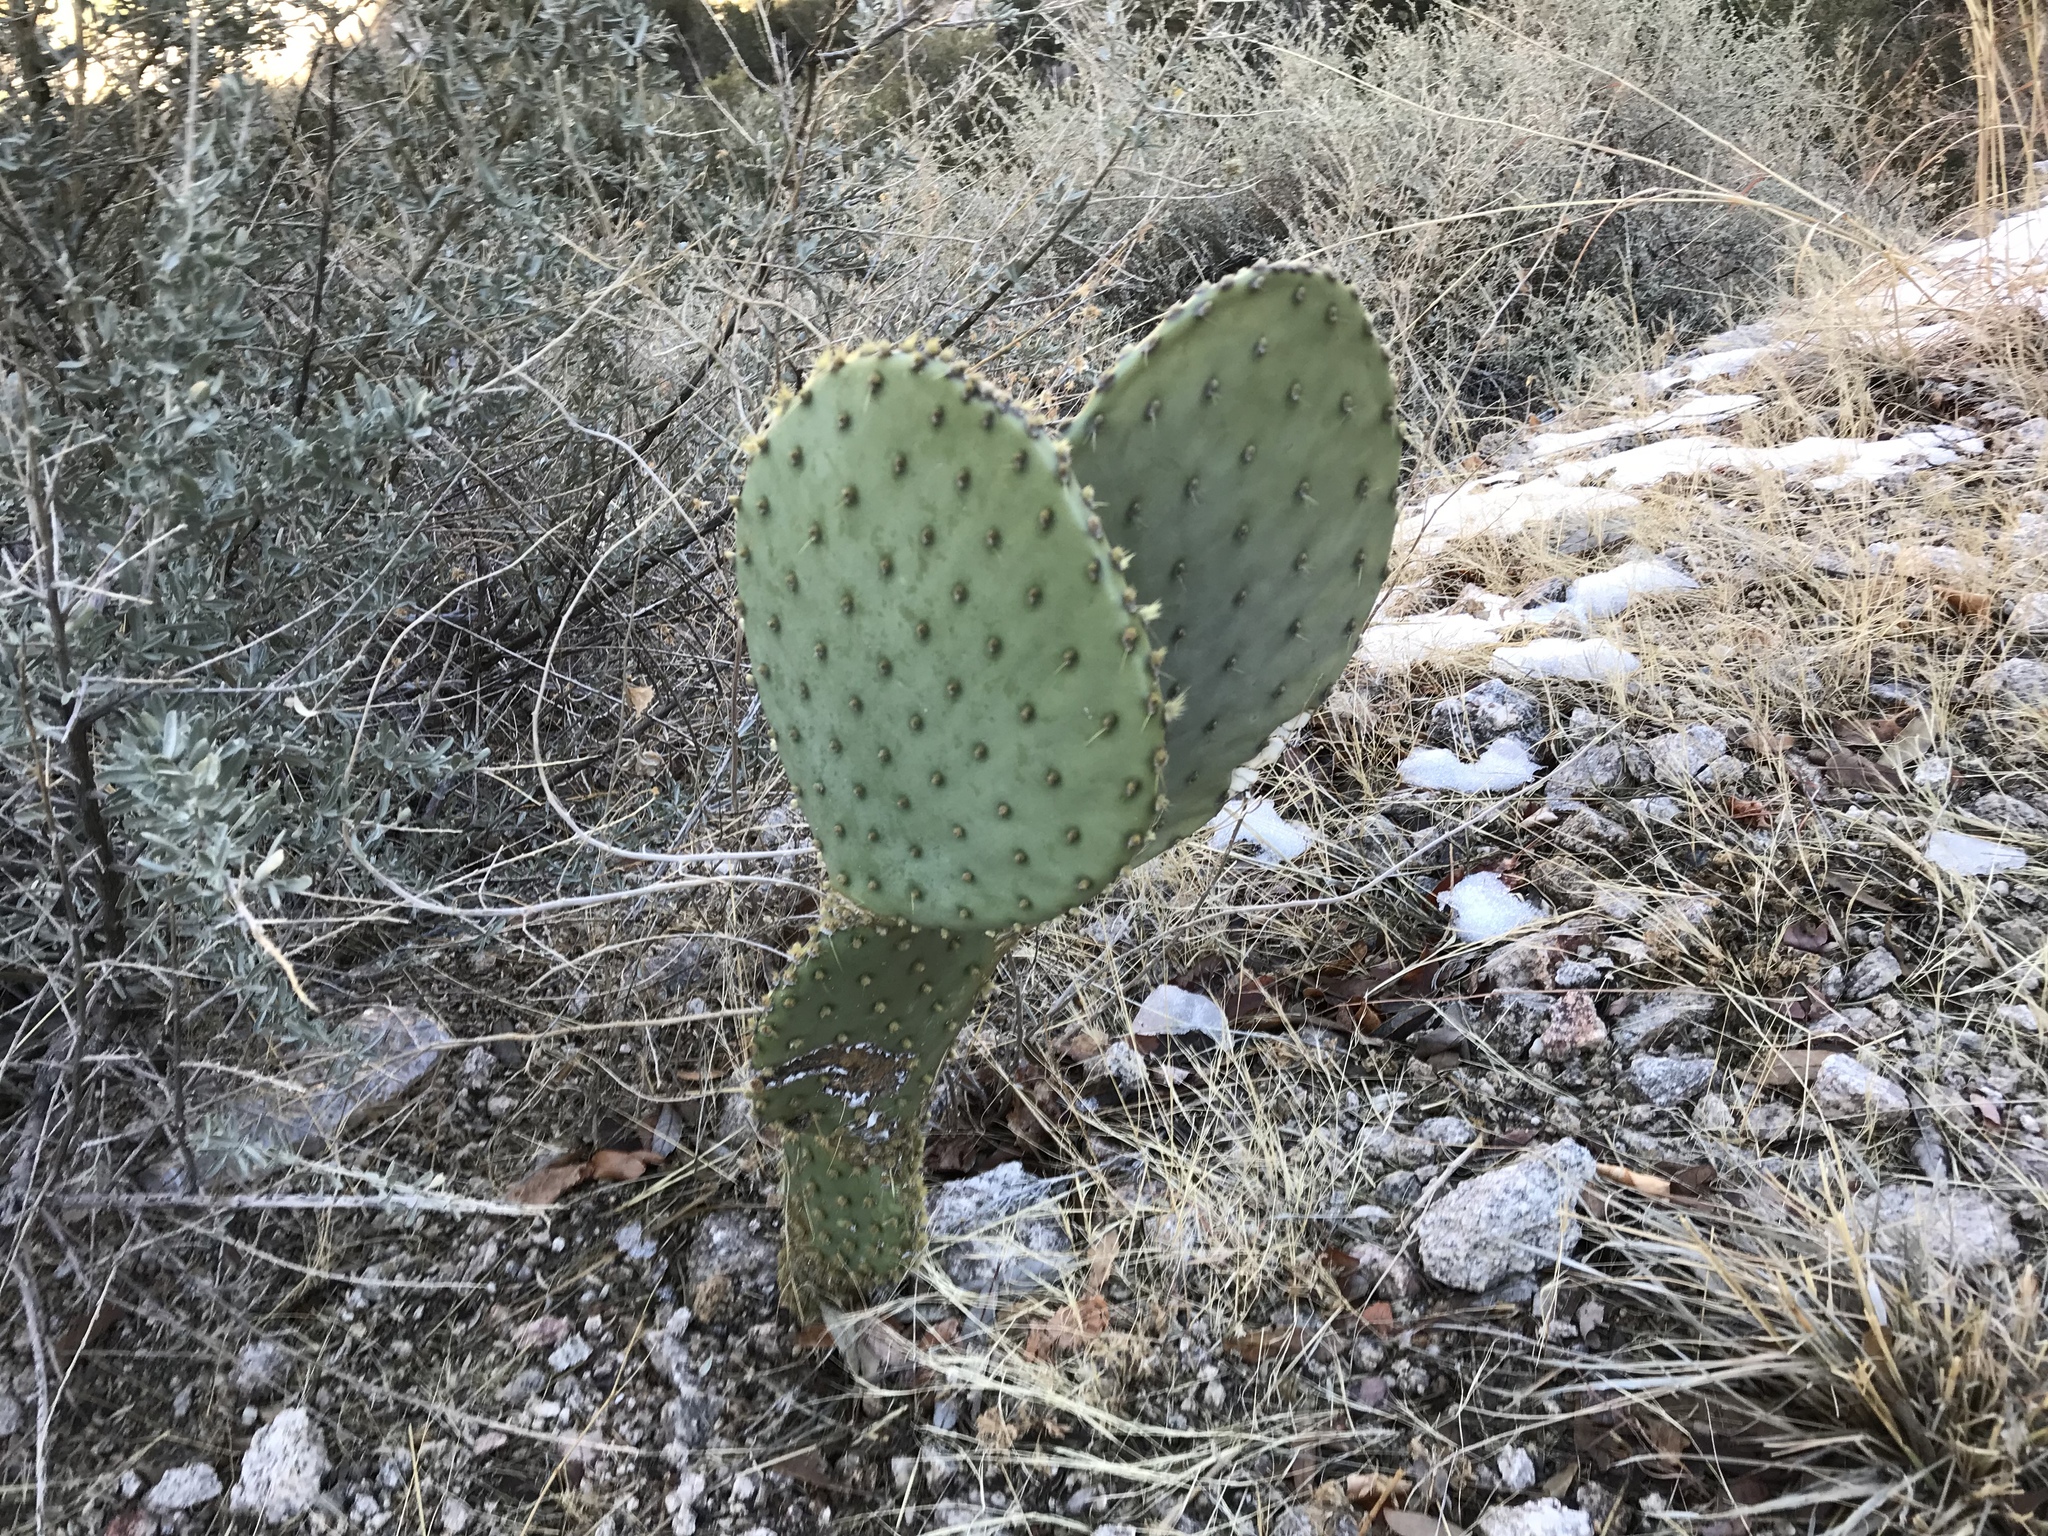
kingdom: Plantae
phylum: Tracheophyta
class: Magnoliopsida
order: Caryophyllales
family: Cactaceae
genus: Opuntia
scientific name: Opuntia chlorotica
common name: Dollar-joint prickly-pear
